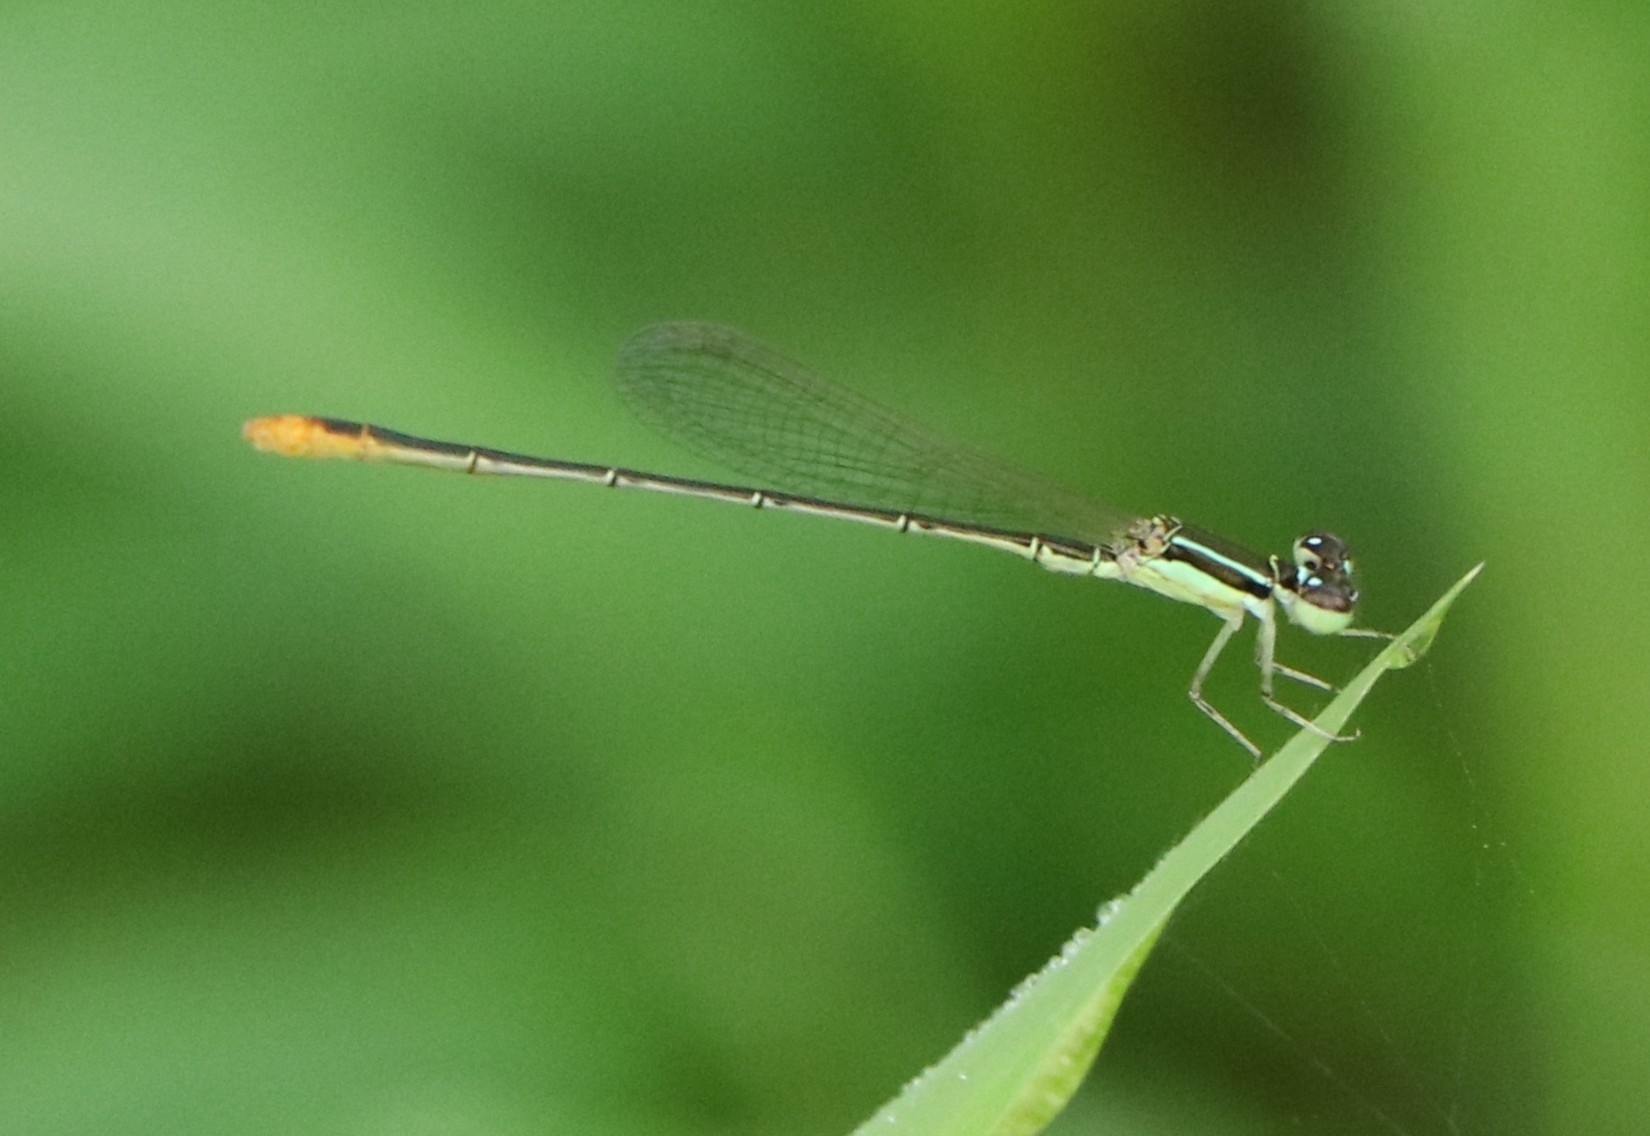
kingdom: Animalia
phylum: Arthropoda
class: Insecta
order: Odonata
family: Coenagrionidae
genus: Agriocnemis
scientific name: Agriocnemis pygmaea
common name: Pygmy wisp
